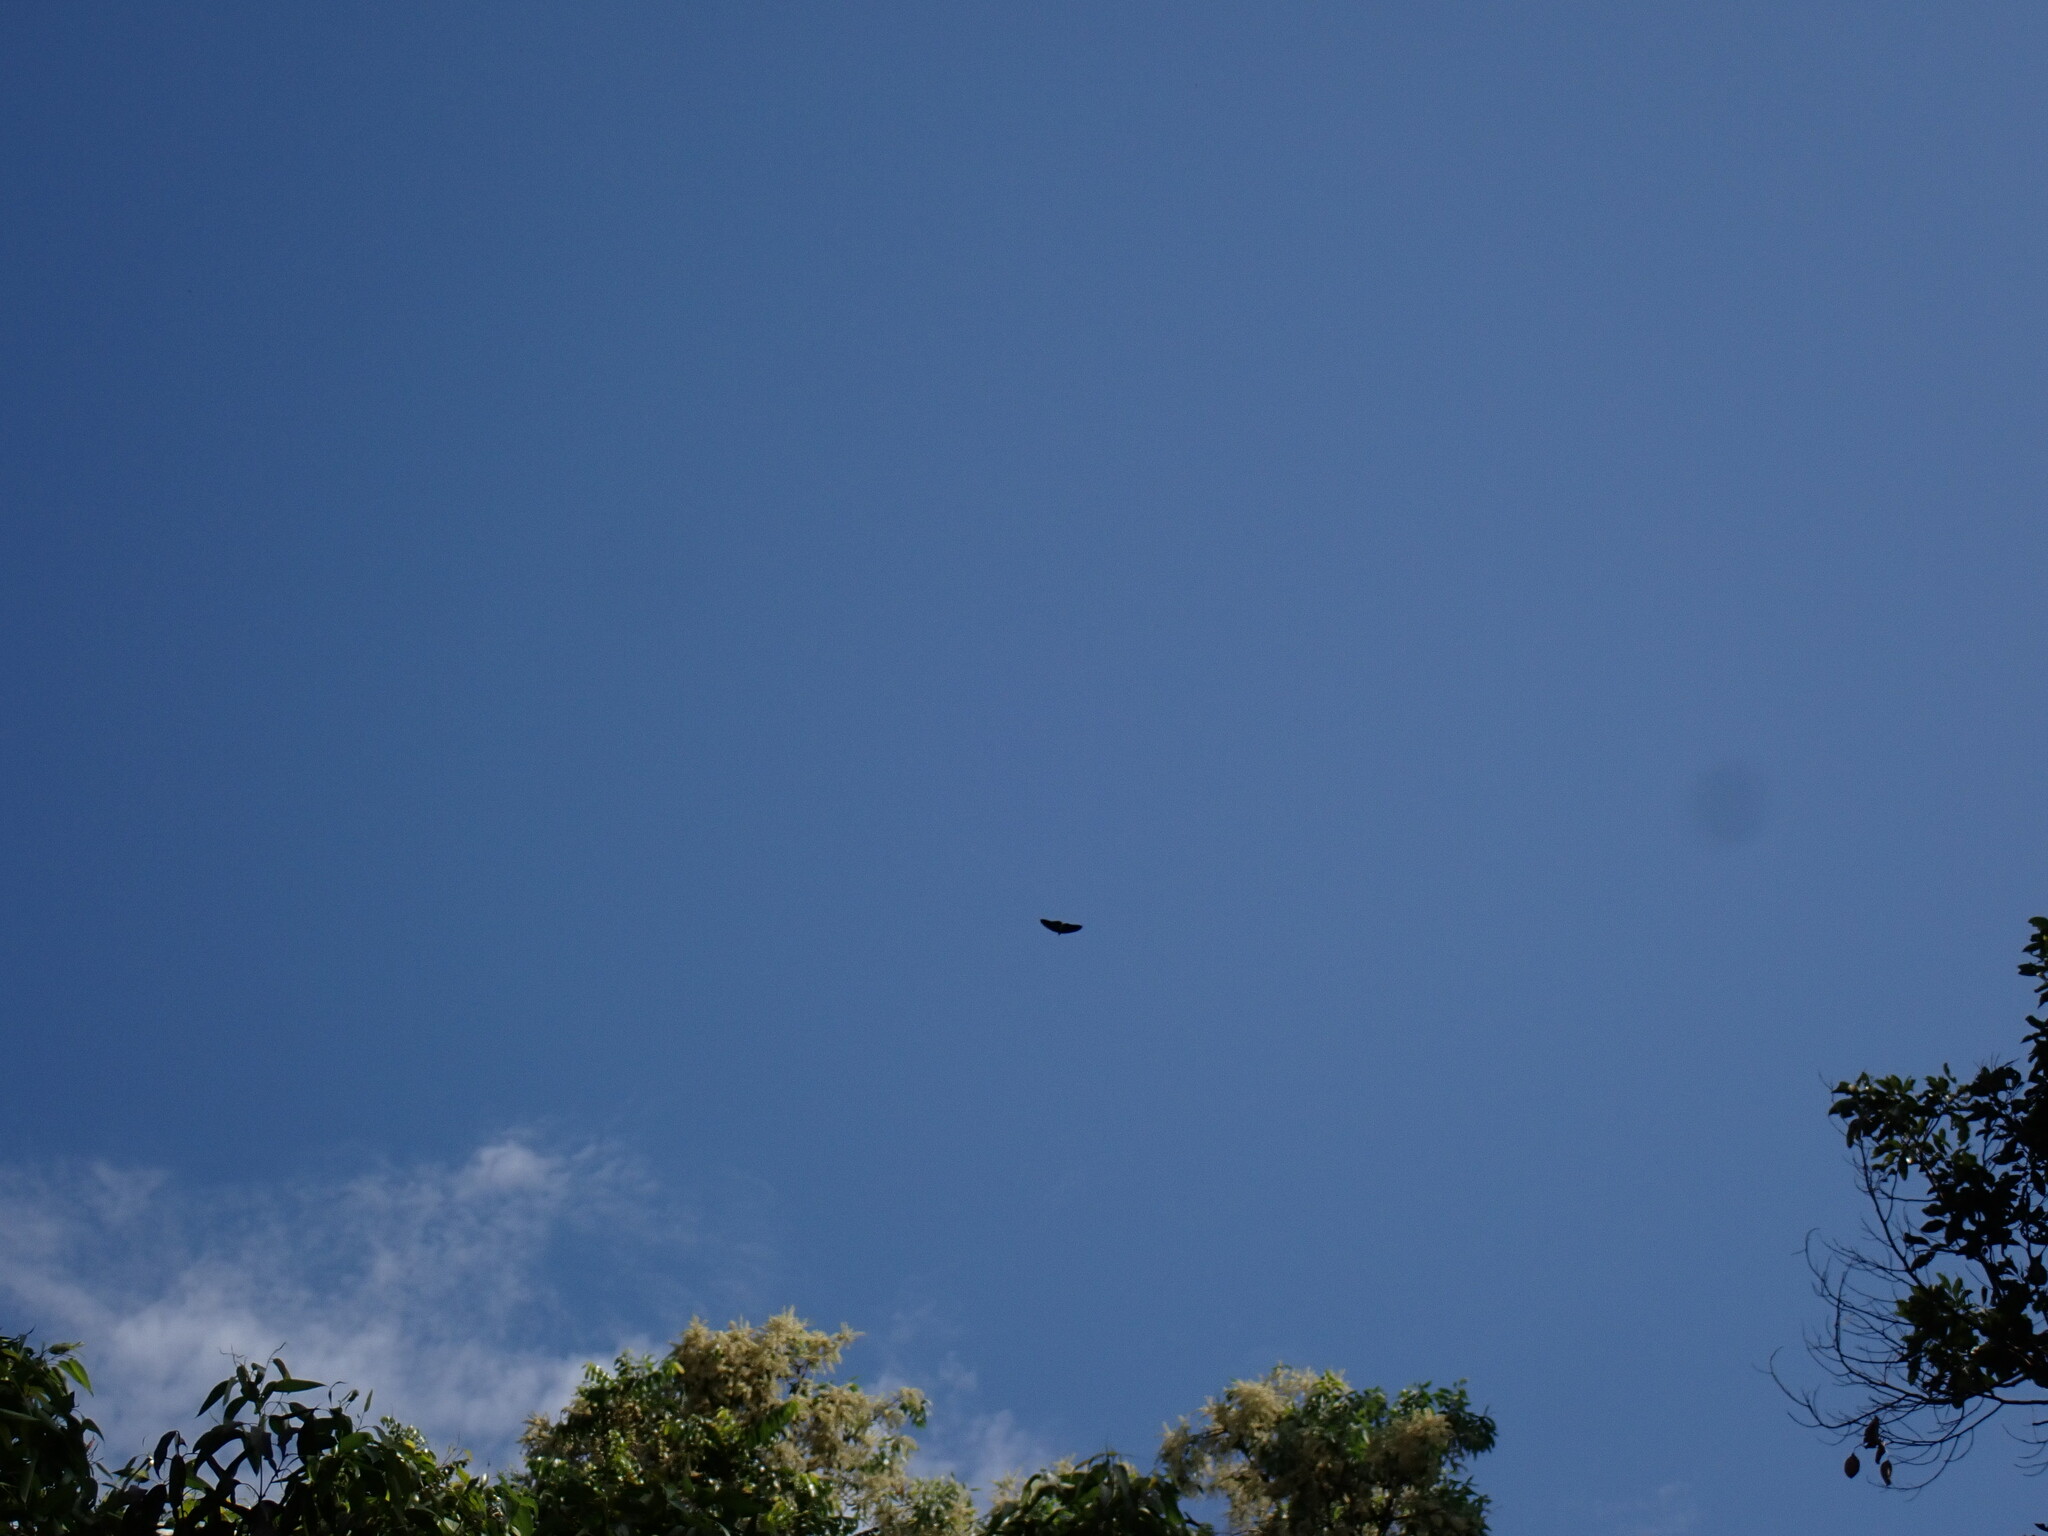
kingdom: Animalia
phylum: Chordata
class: Aves
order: Accipitriformes
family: Accipitridae
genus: Aviceda
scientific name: Aviceda subcristata
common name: Pacific baza
